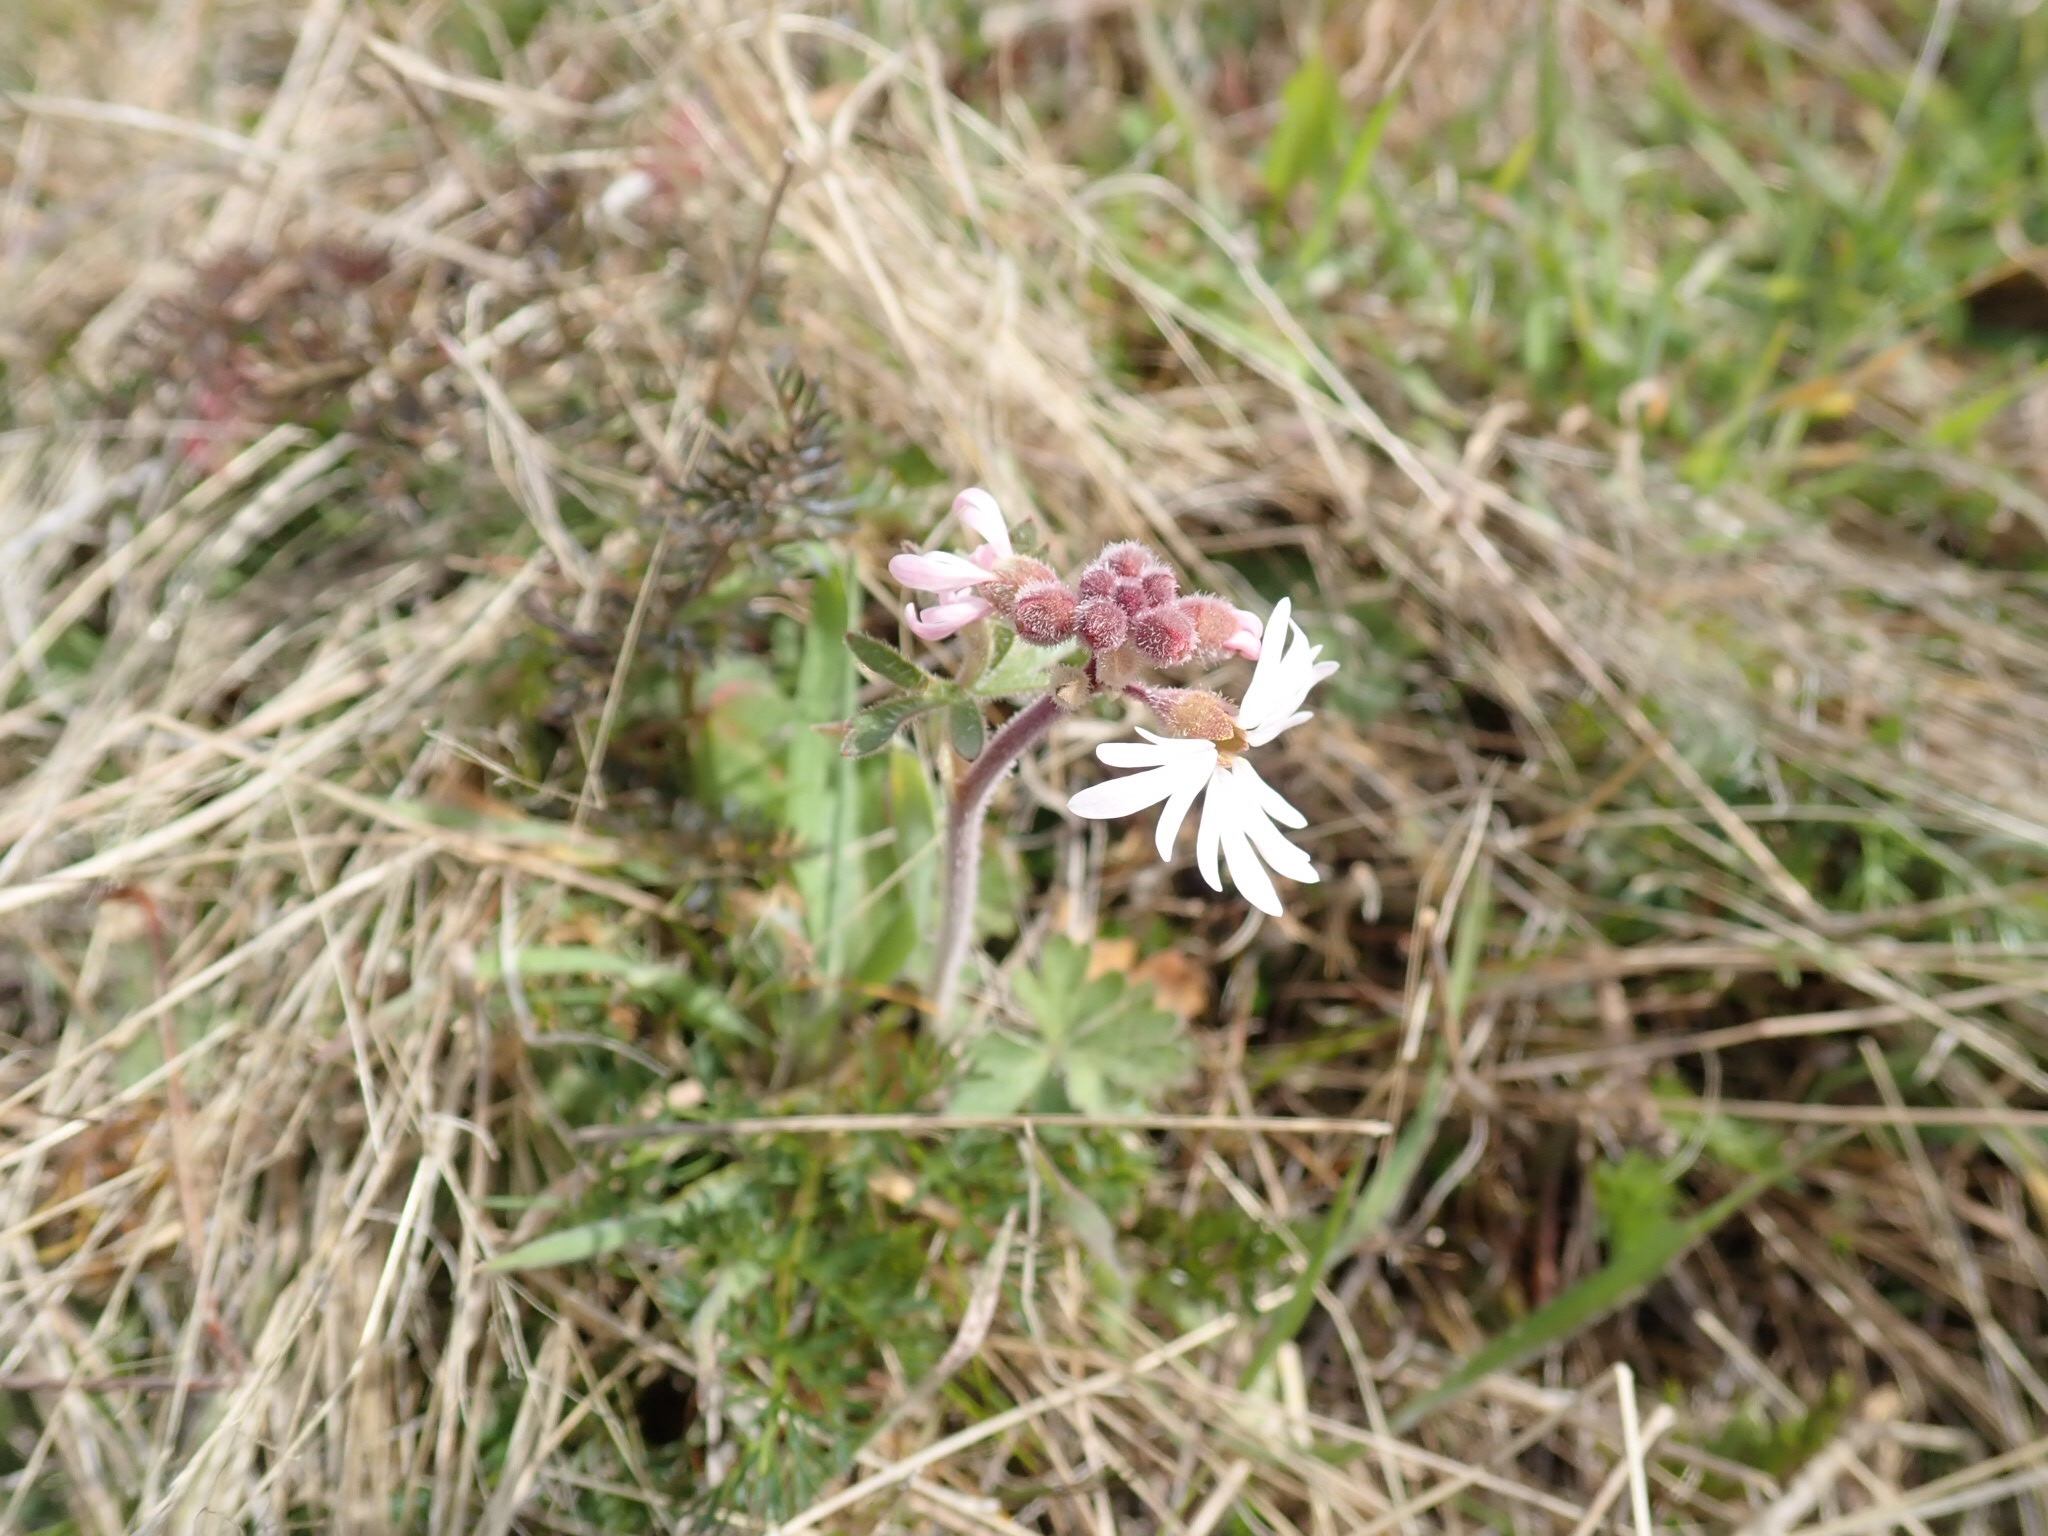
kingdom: Plantae
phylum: Tracheophyta
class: Magnoliopsida
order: Saxifragales
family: Saxifragaceae
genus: Lithophragma
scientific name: Lithophragma parviflorum
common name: Small-flowered fringe-cup
